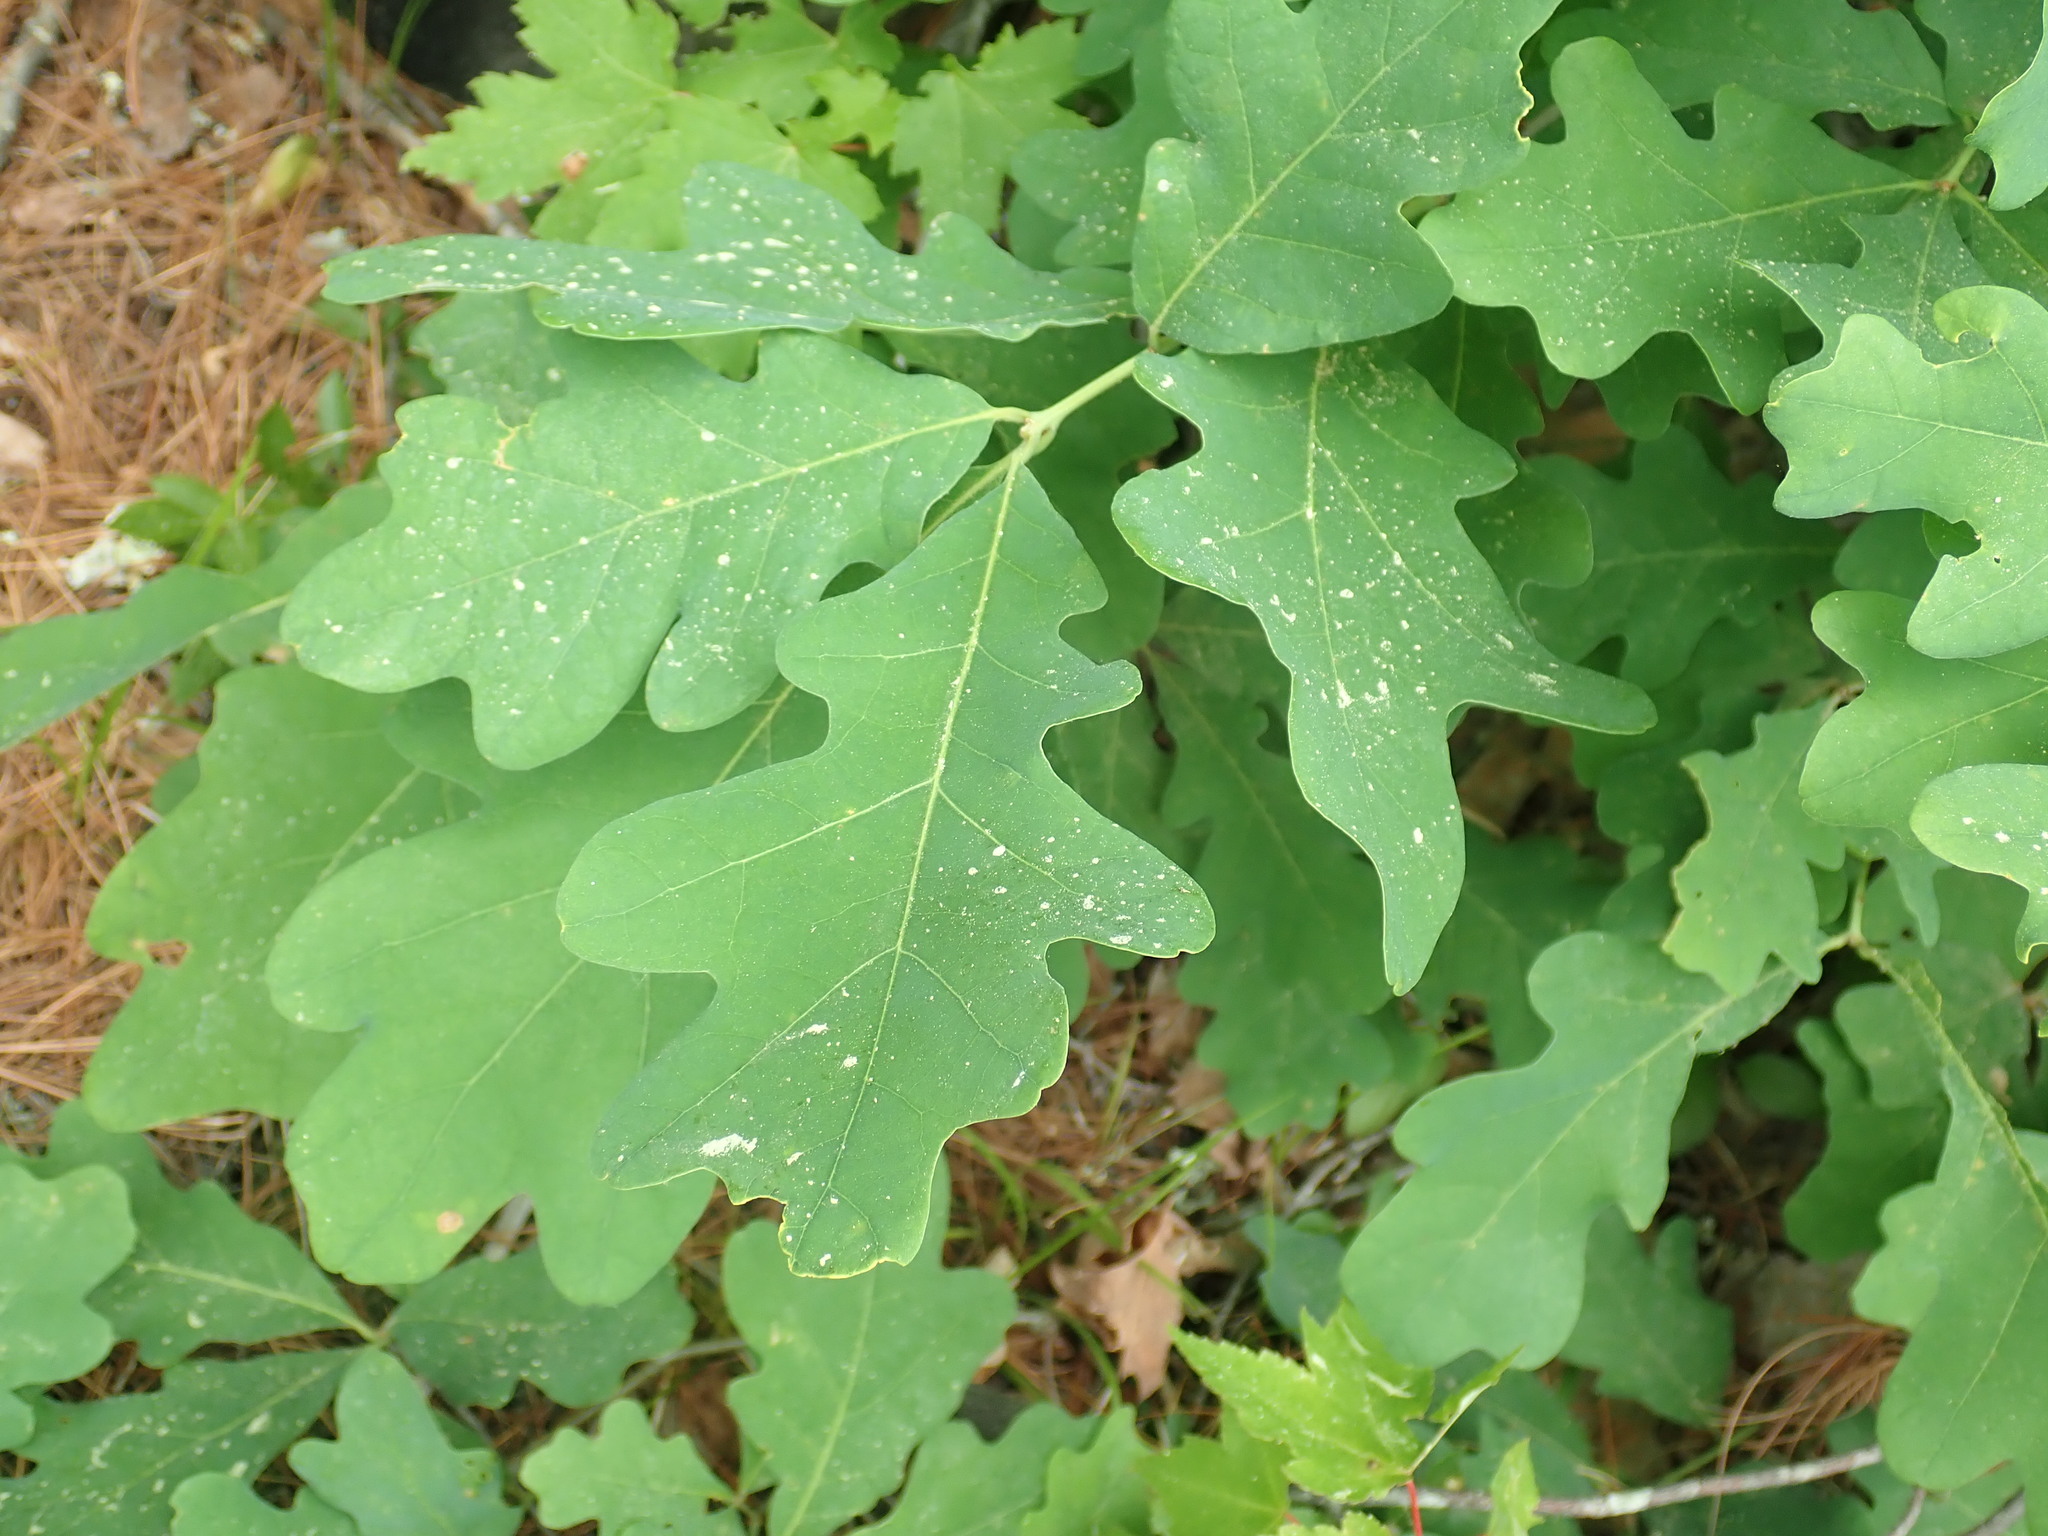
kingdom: Plantae
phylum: Tracheophyta
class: Magnoliopsida
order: Fagales
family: Fagaceae
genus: Quercus
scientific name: Quercus alba
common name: White oak
